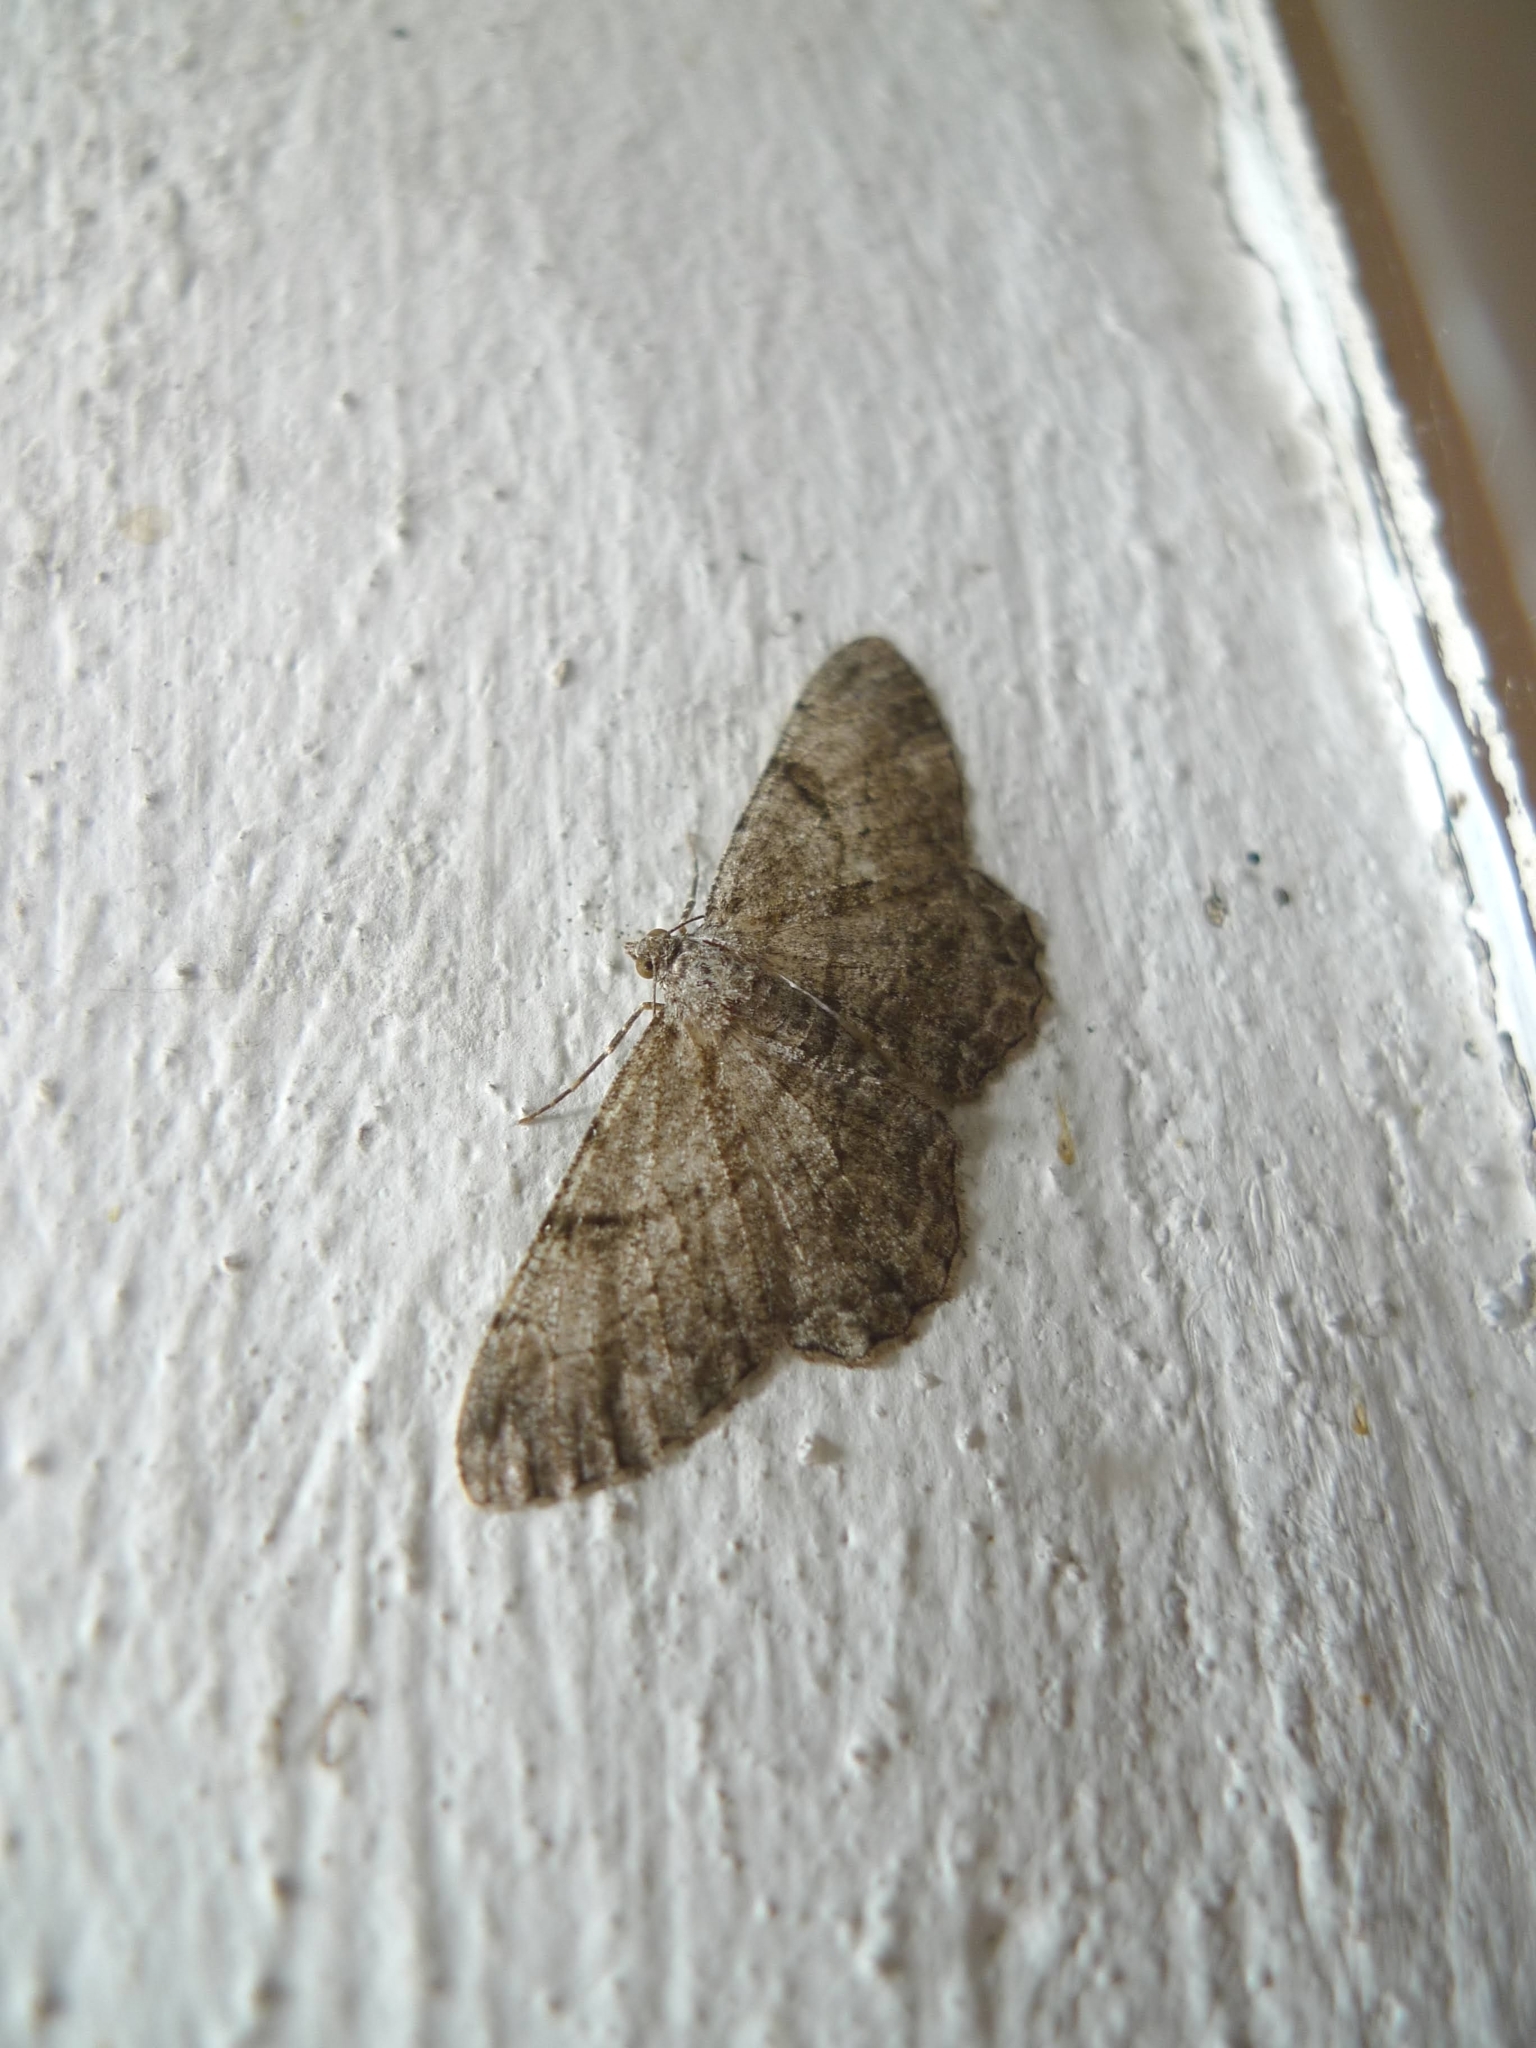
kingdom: Animalia
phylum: Arthropoda
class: Insecta
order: Lepidoptera
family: Geometridae
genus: Peribatodes
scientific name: Peribatodes rhomboidaria
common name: Willow beauty
